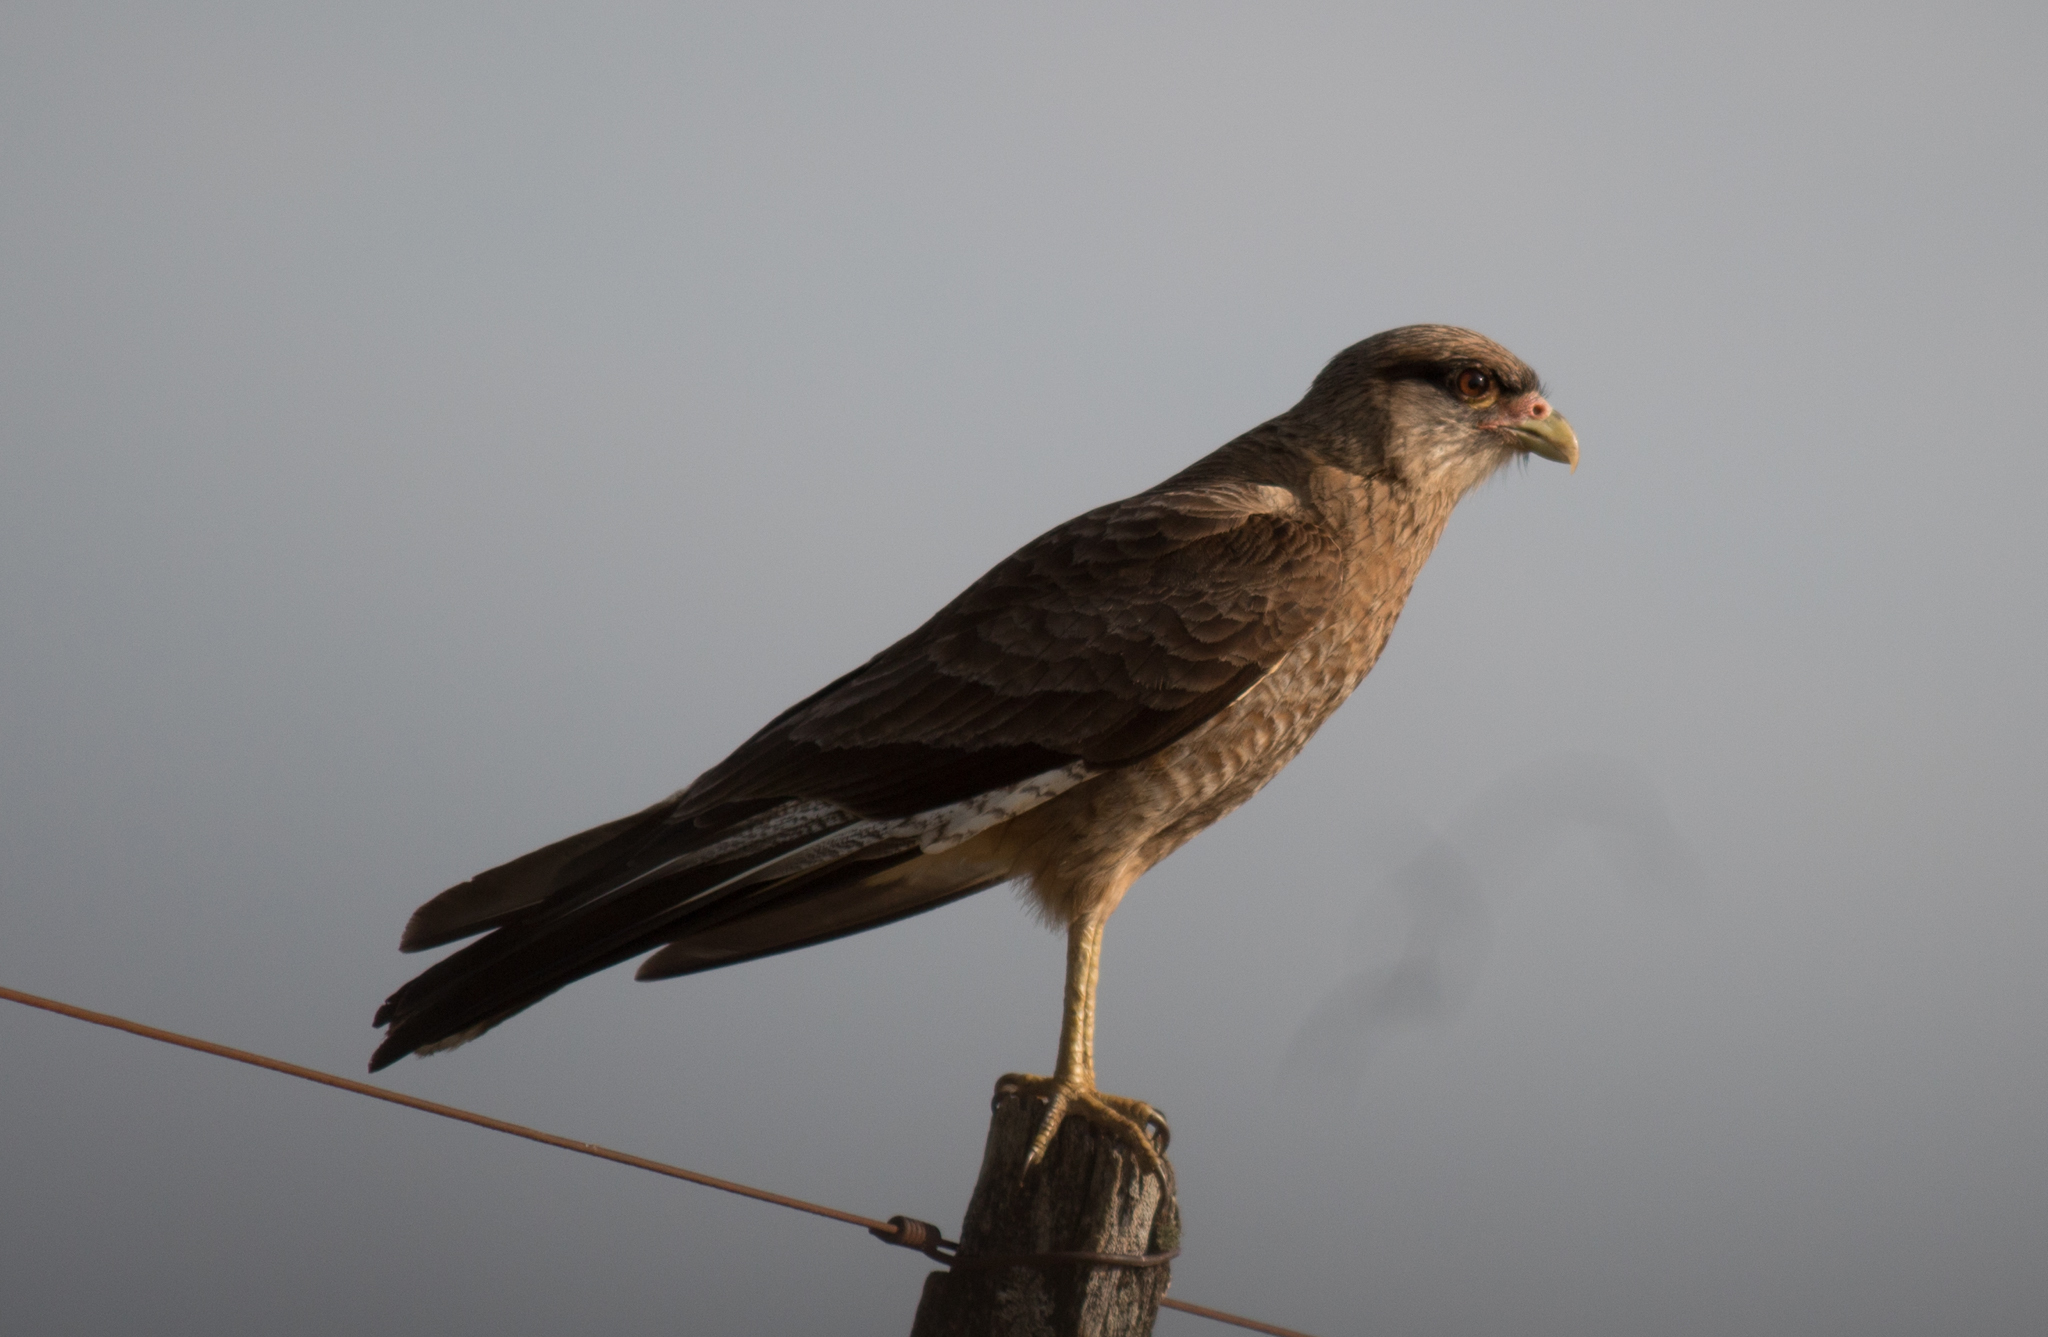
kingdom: Animalia
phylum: Chordata
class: Aves
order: Falconiformes
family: Falconidae
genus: Daptrius
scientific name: Daptrius
